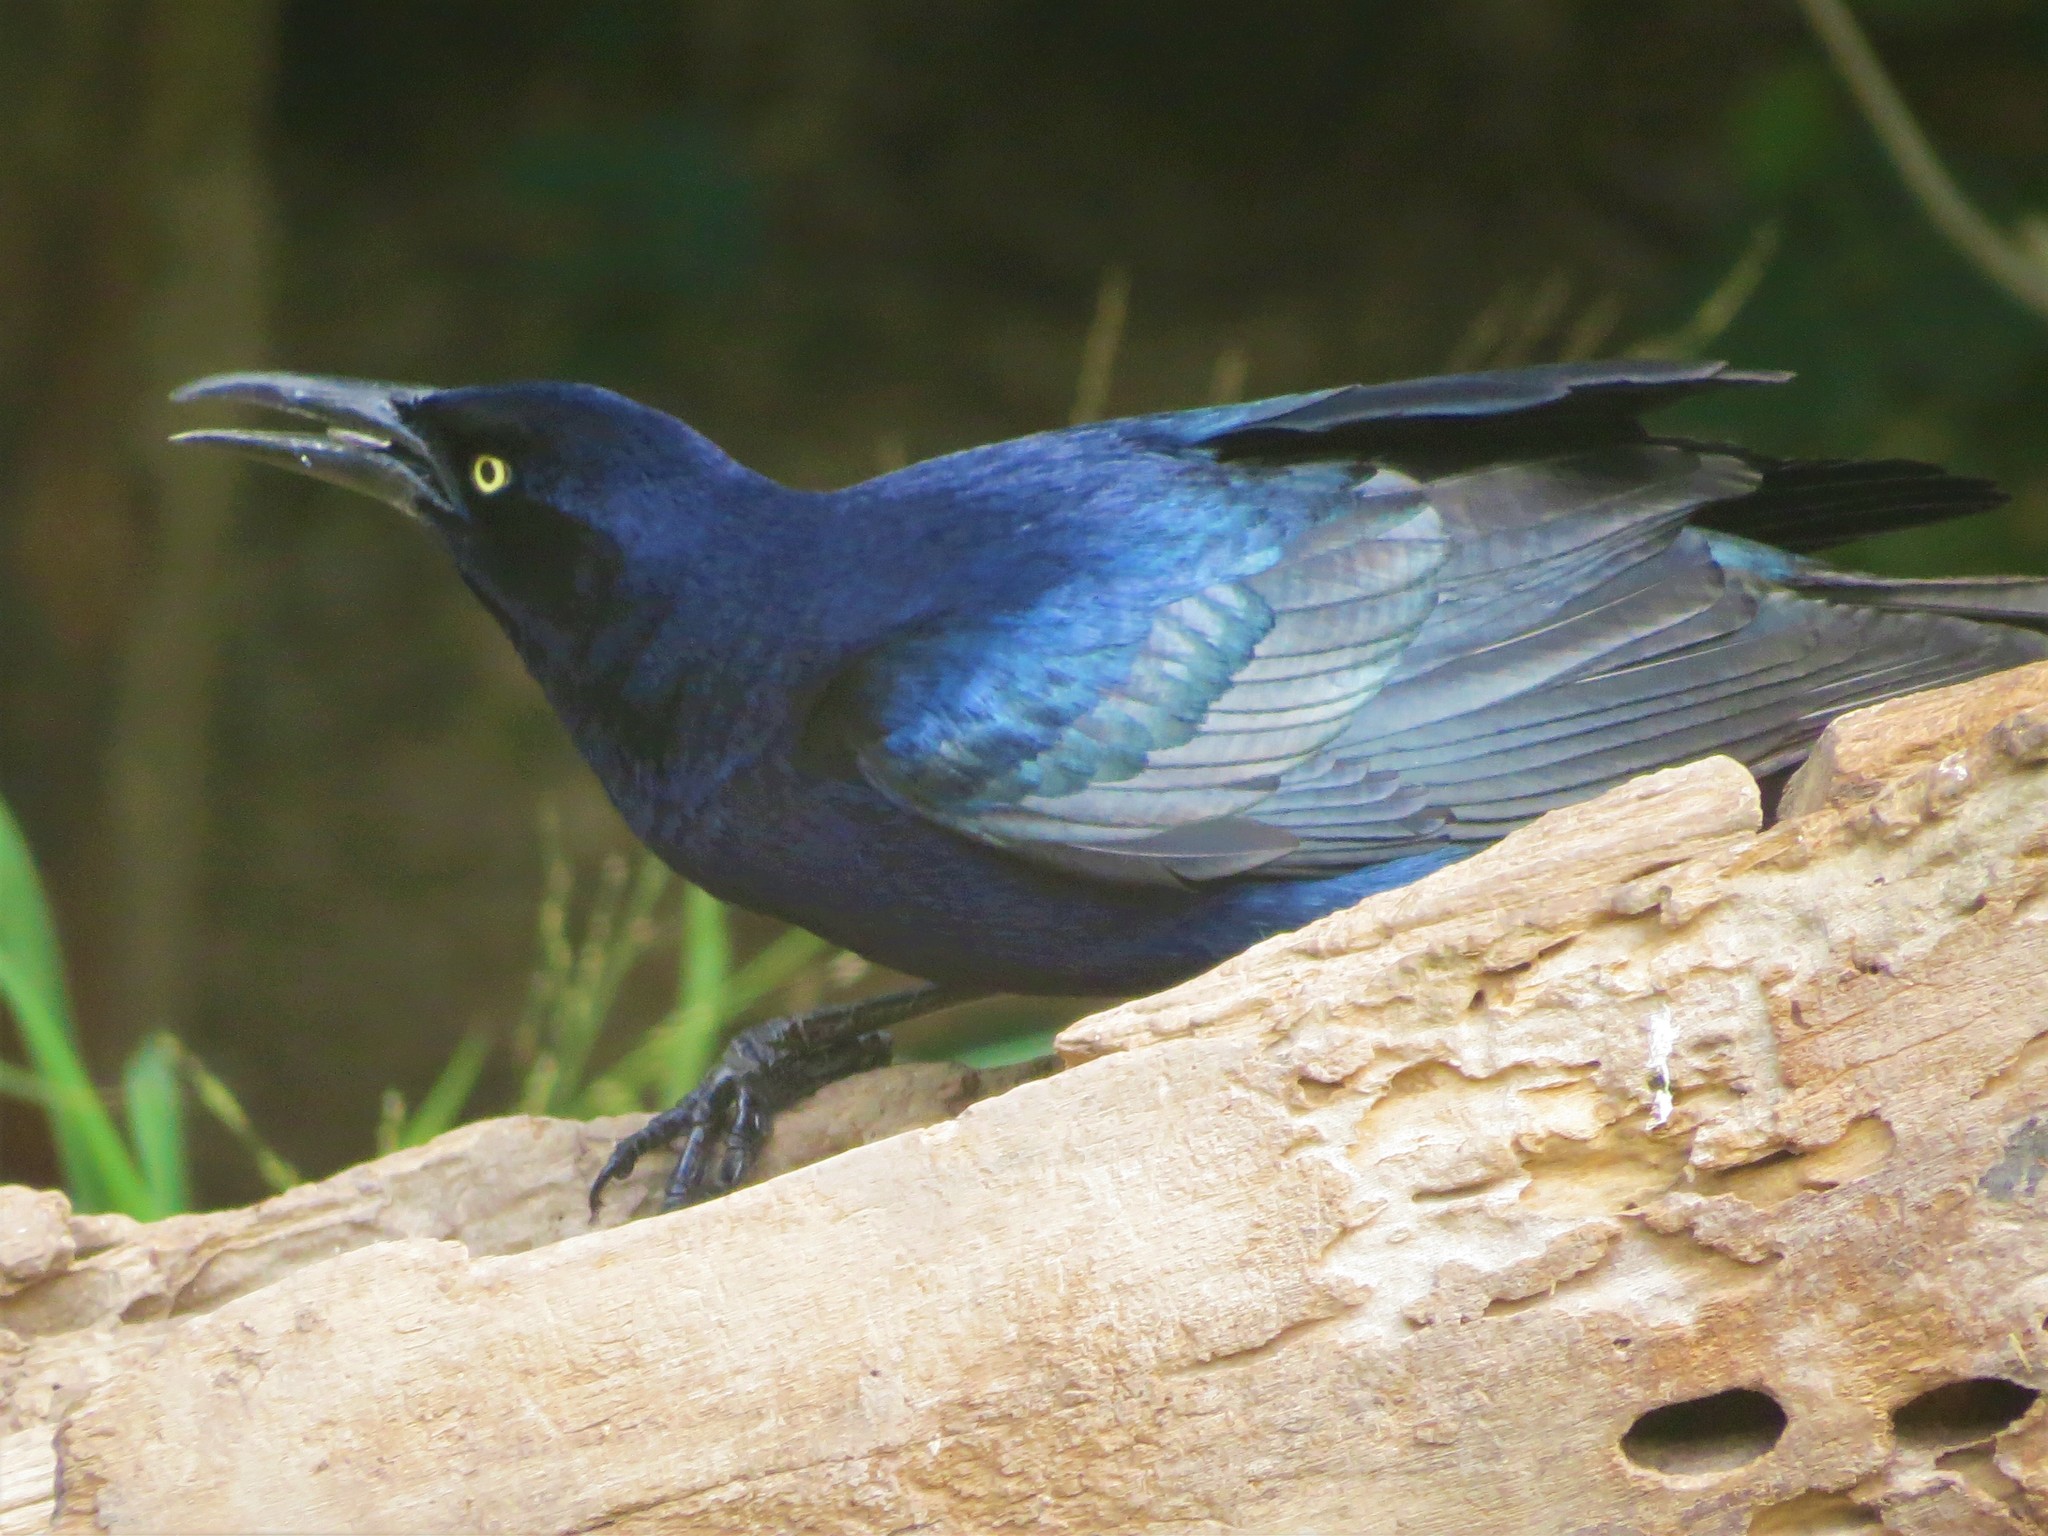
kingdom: Animalia
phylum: Chordata
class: Aves
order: Passeriformes
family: Icteridae
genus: Quiscalus
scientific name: Quiscalus mexicanus
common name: Great-tailed grackle
